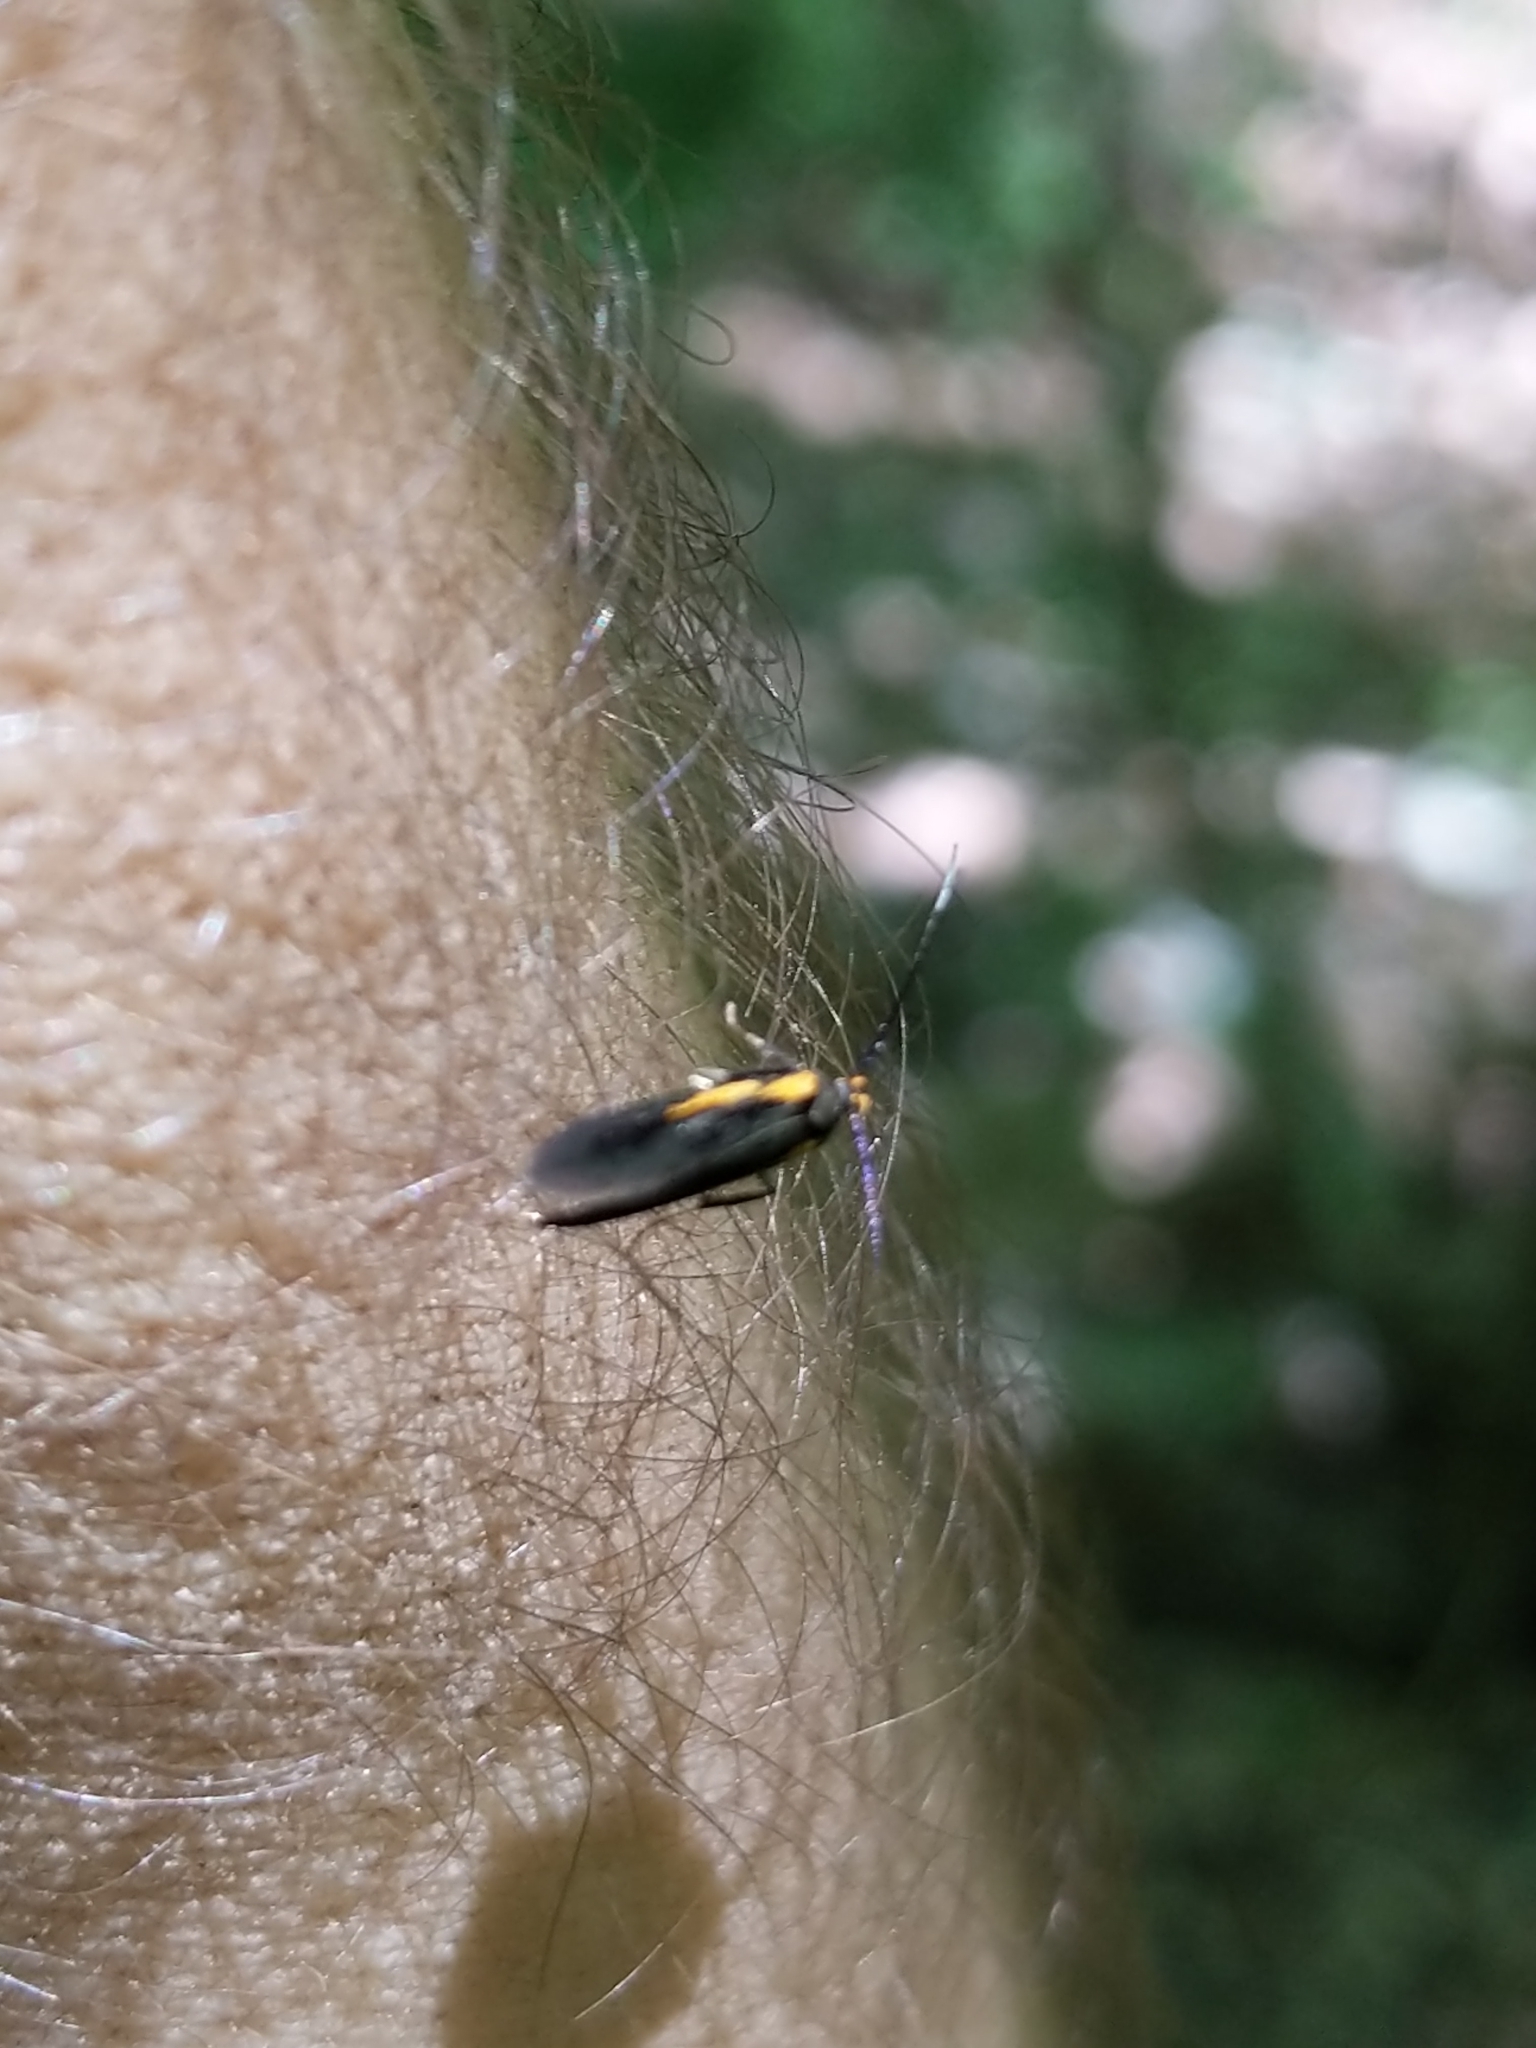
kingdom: Animalia
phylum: Arthropoda
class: Insecta
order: Lepidoptera
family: Oecophoridae
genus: Mathildana
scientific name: Mathildana newmanella
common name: Newman's mathildana moth
